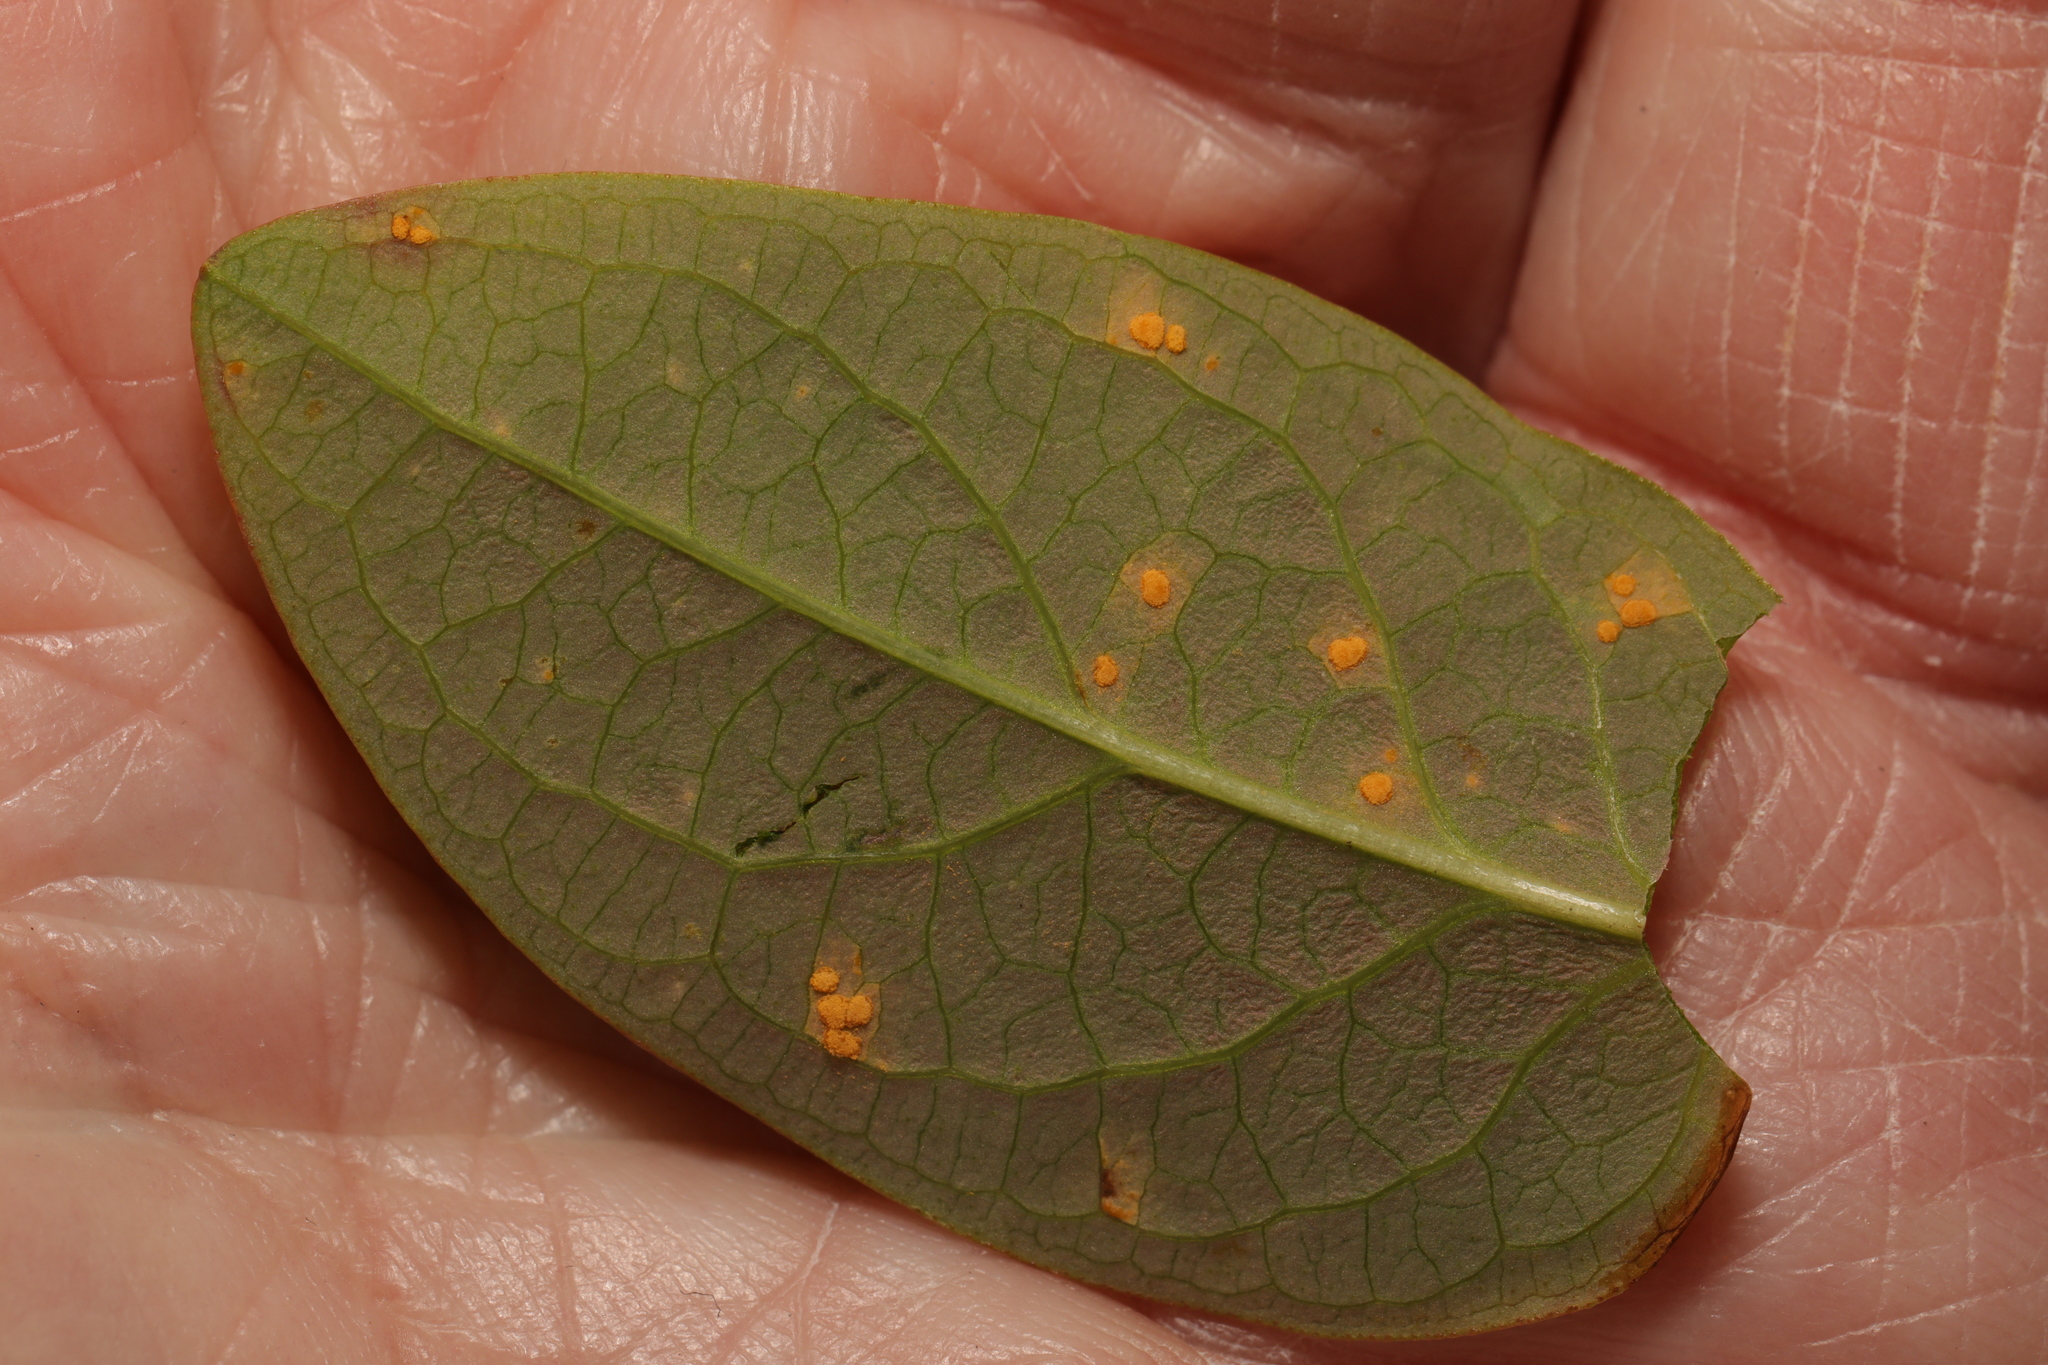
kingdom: Fungi
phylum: Basidiomycota
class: Pucciniomycetes
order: Pucciniales
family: Melampsoraceae
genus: Melampsora
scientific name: Melampsora
